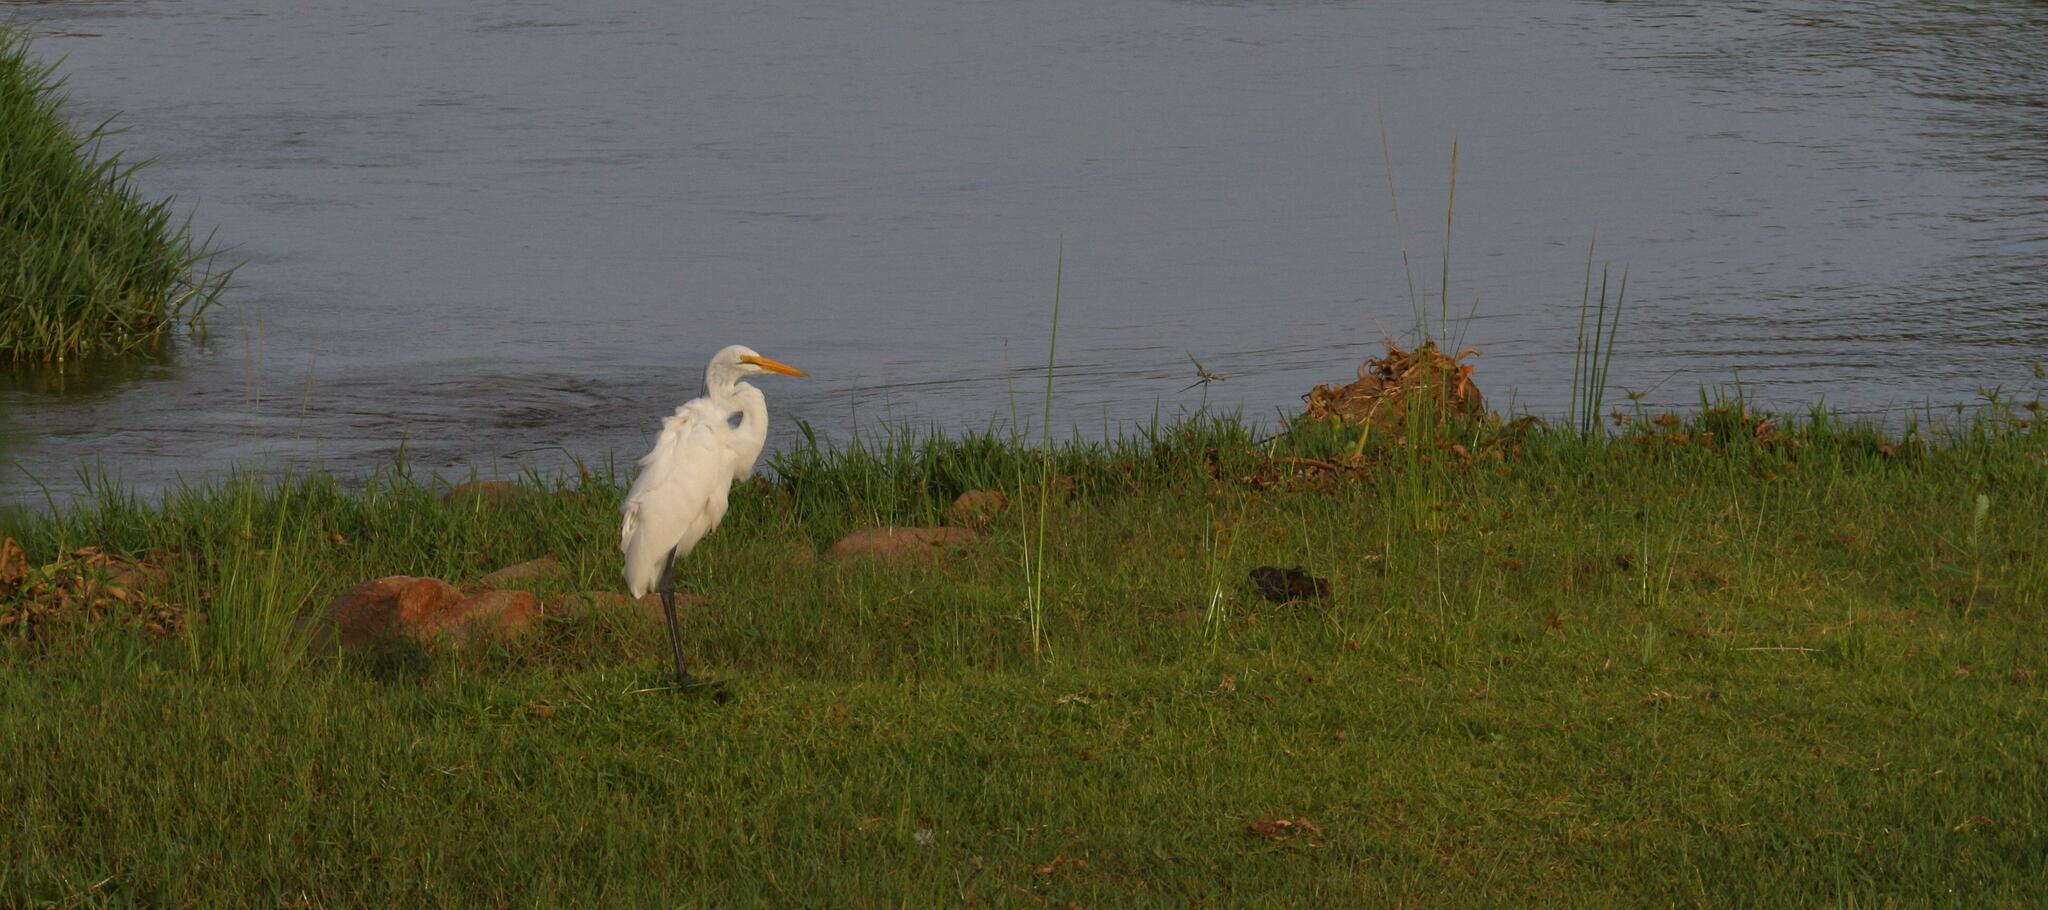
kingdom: Animalia
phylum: Chordata
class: Aves
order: Pelecaniformes
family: Ardeidae
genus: Ardea
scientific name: Ardea alba
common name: Great egret
